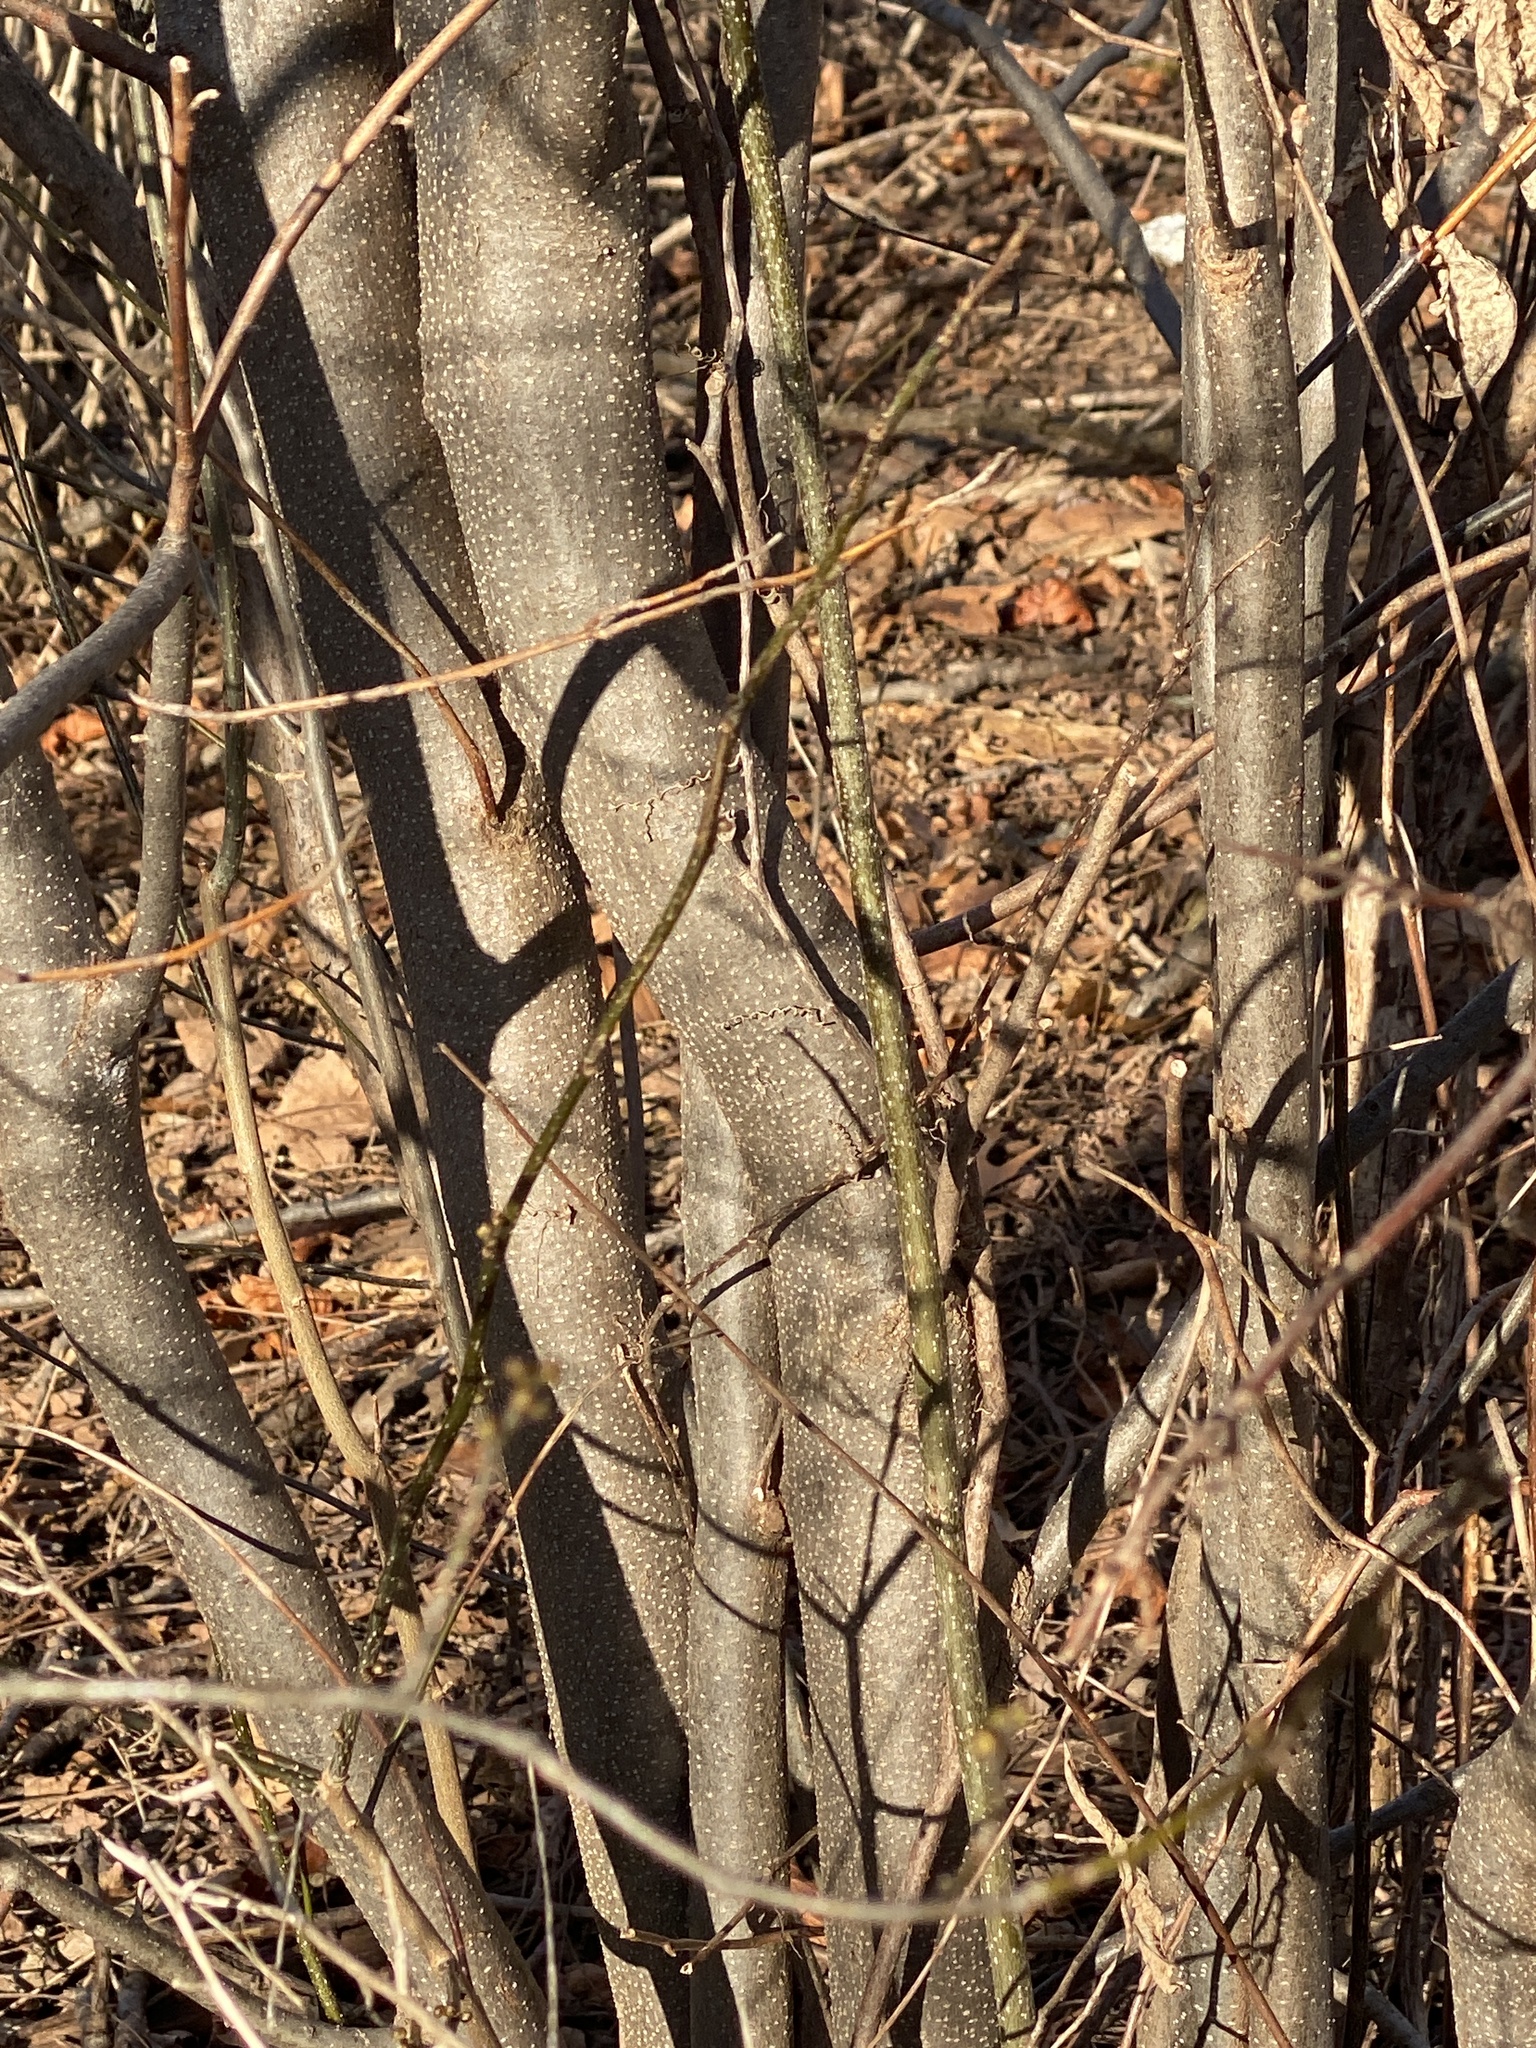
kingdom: Plantae
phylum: Tracheophyta
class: Magnoliopsida
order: Laurales
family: Lauraceae
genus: Lindera
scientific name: Lindera benzoin
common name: Spicebush
